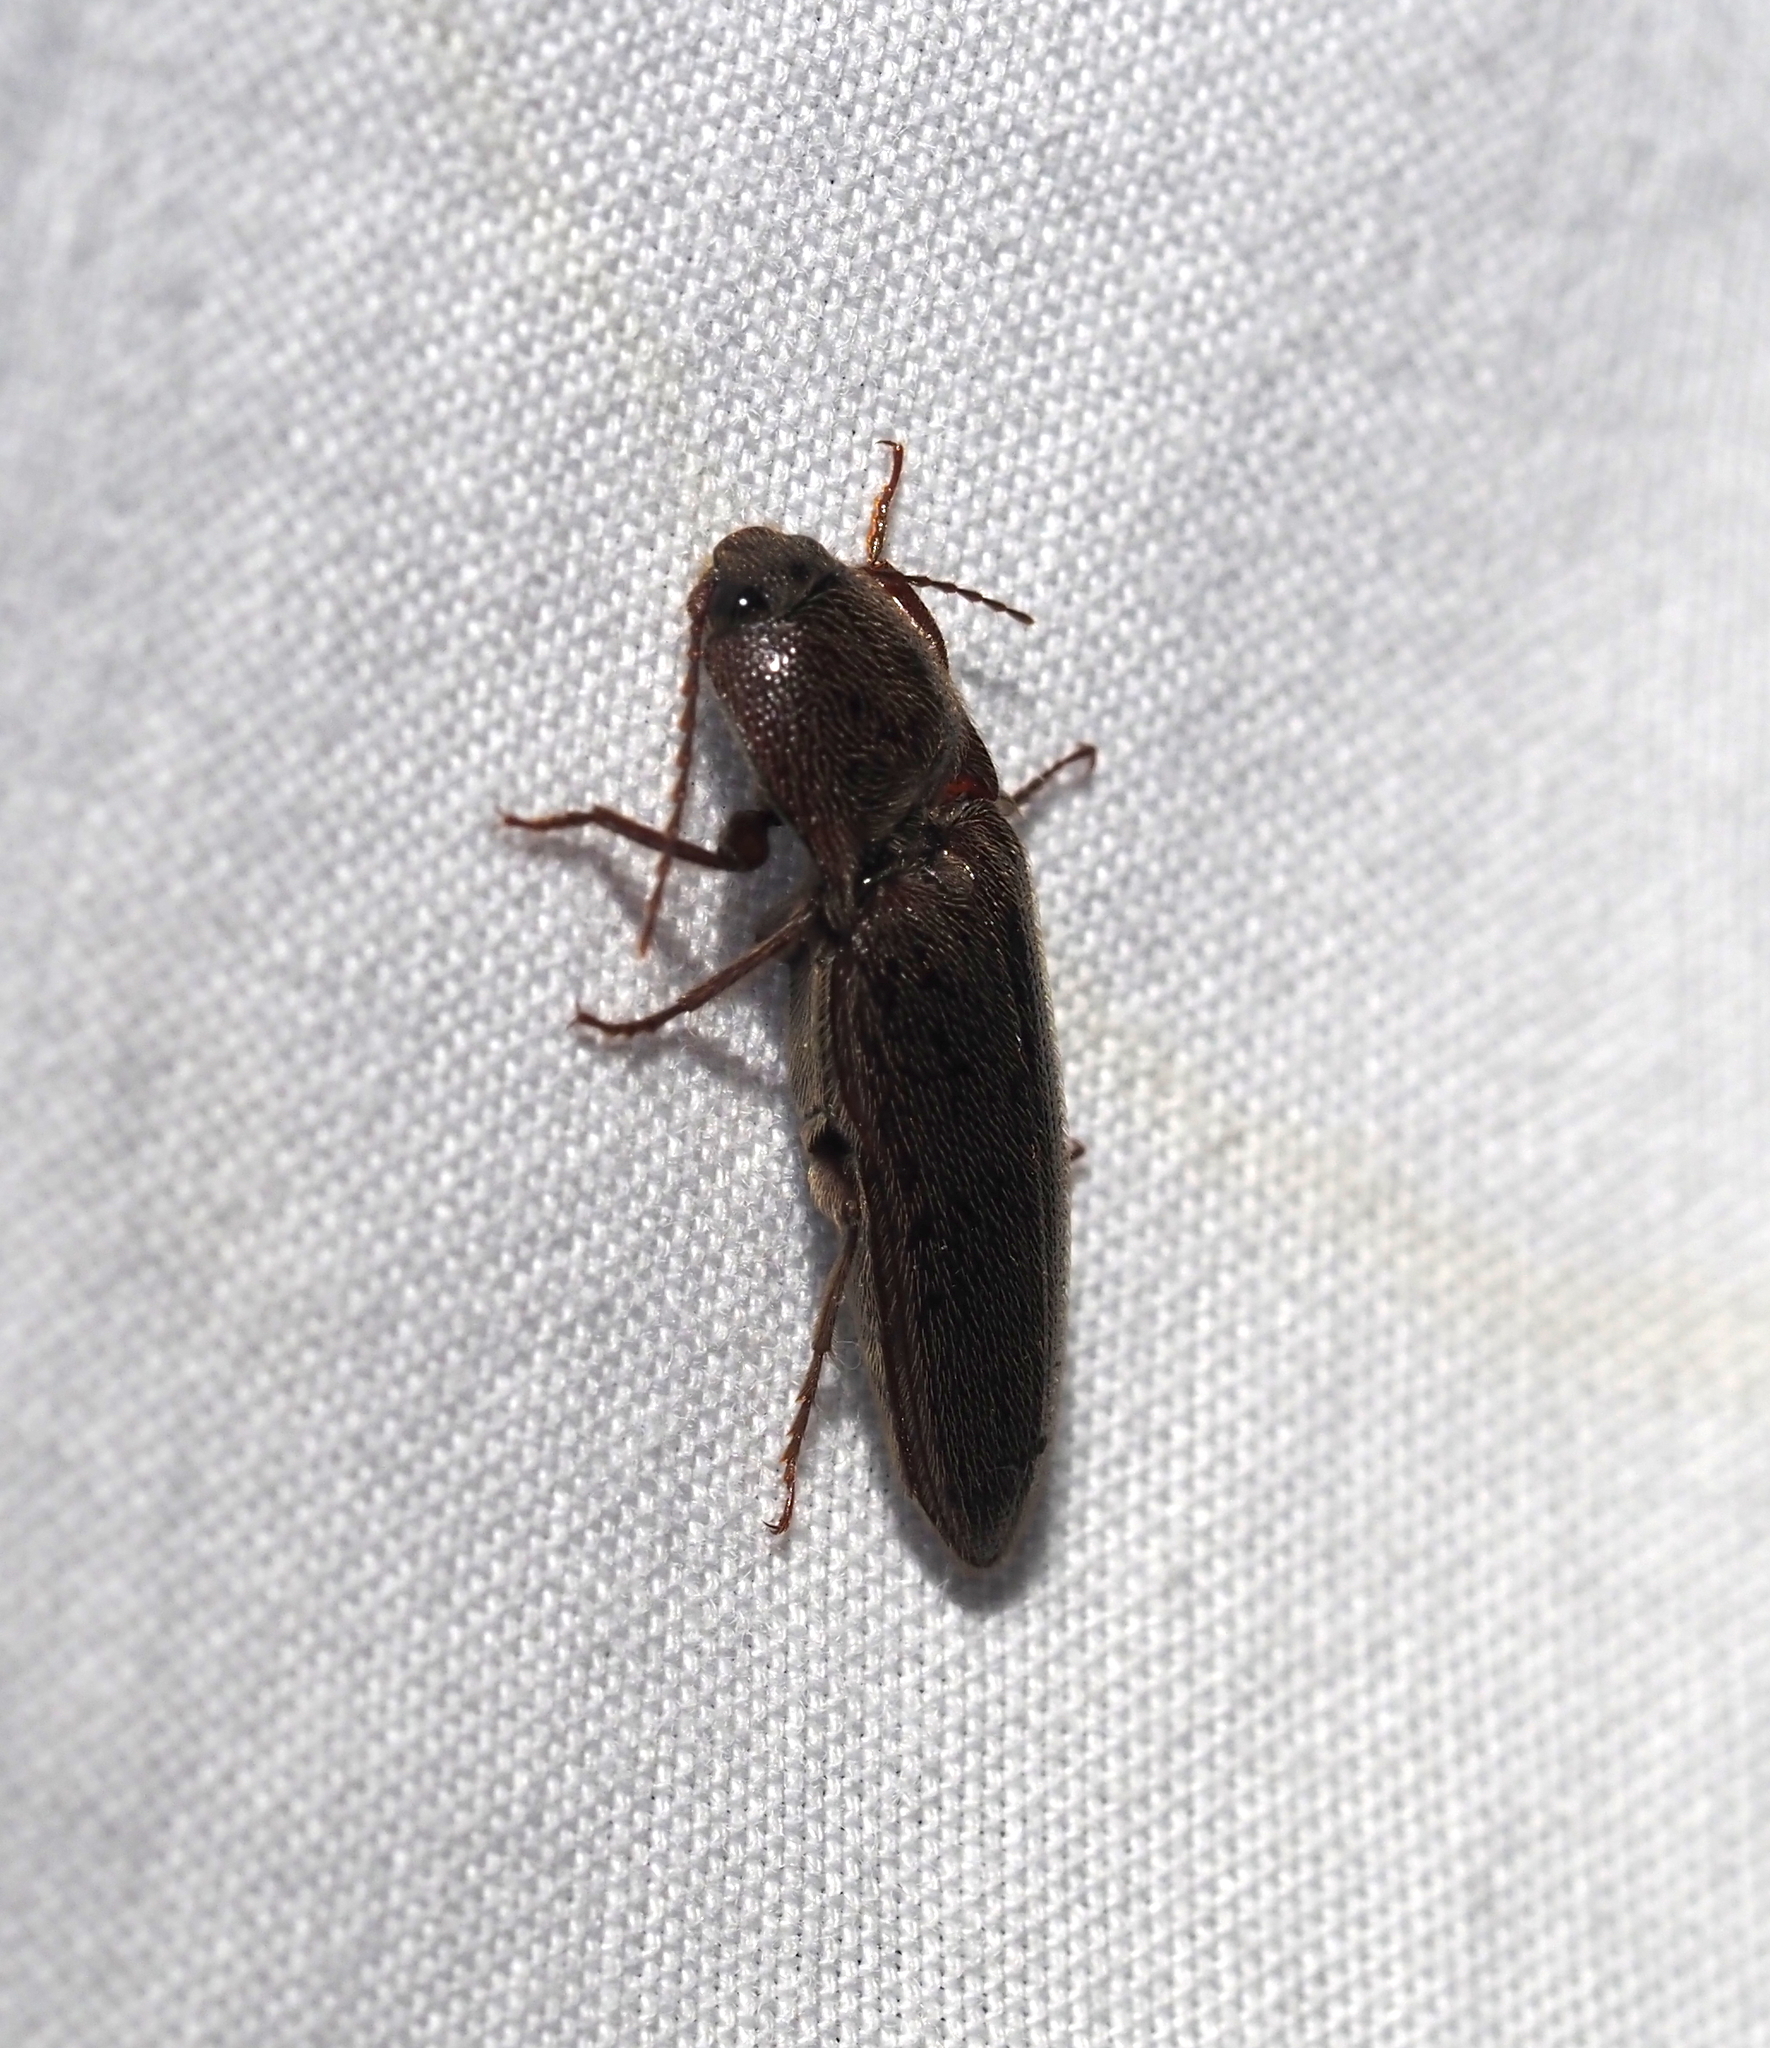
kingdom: Animalia
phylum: Arthropoda
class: Insecta
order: Coleoptera
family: Elateridae
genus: Melanotus
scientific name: Melanotus
